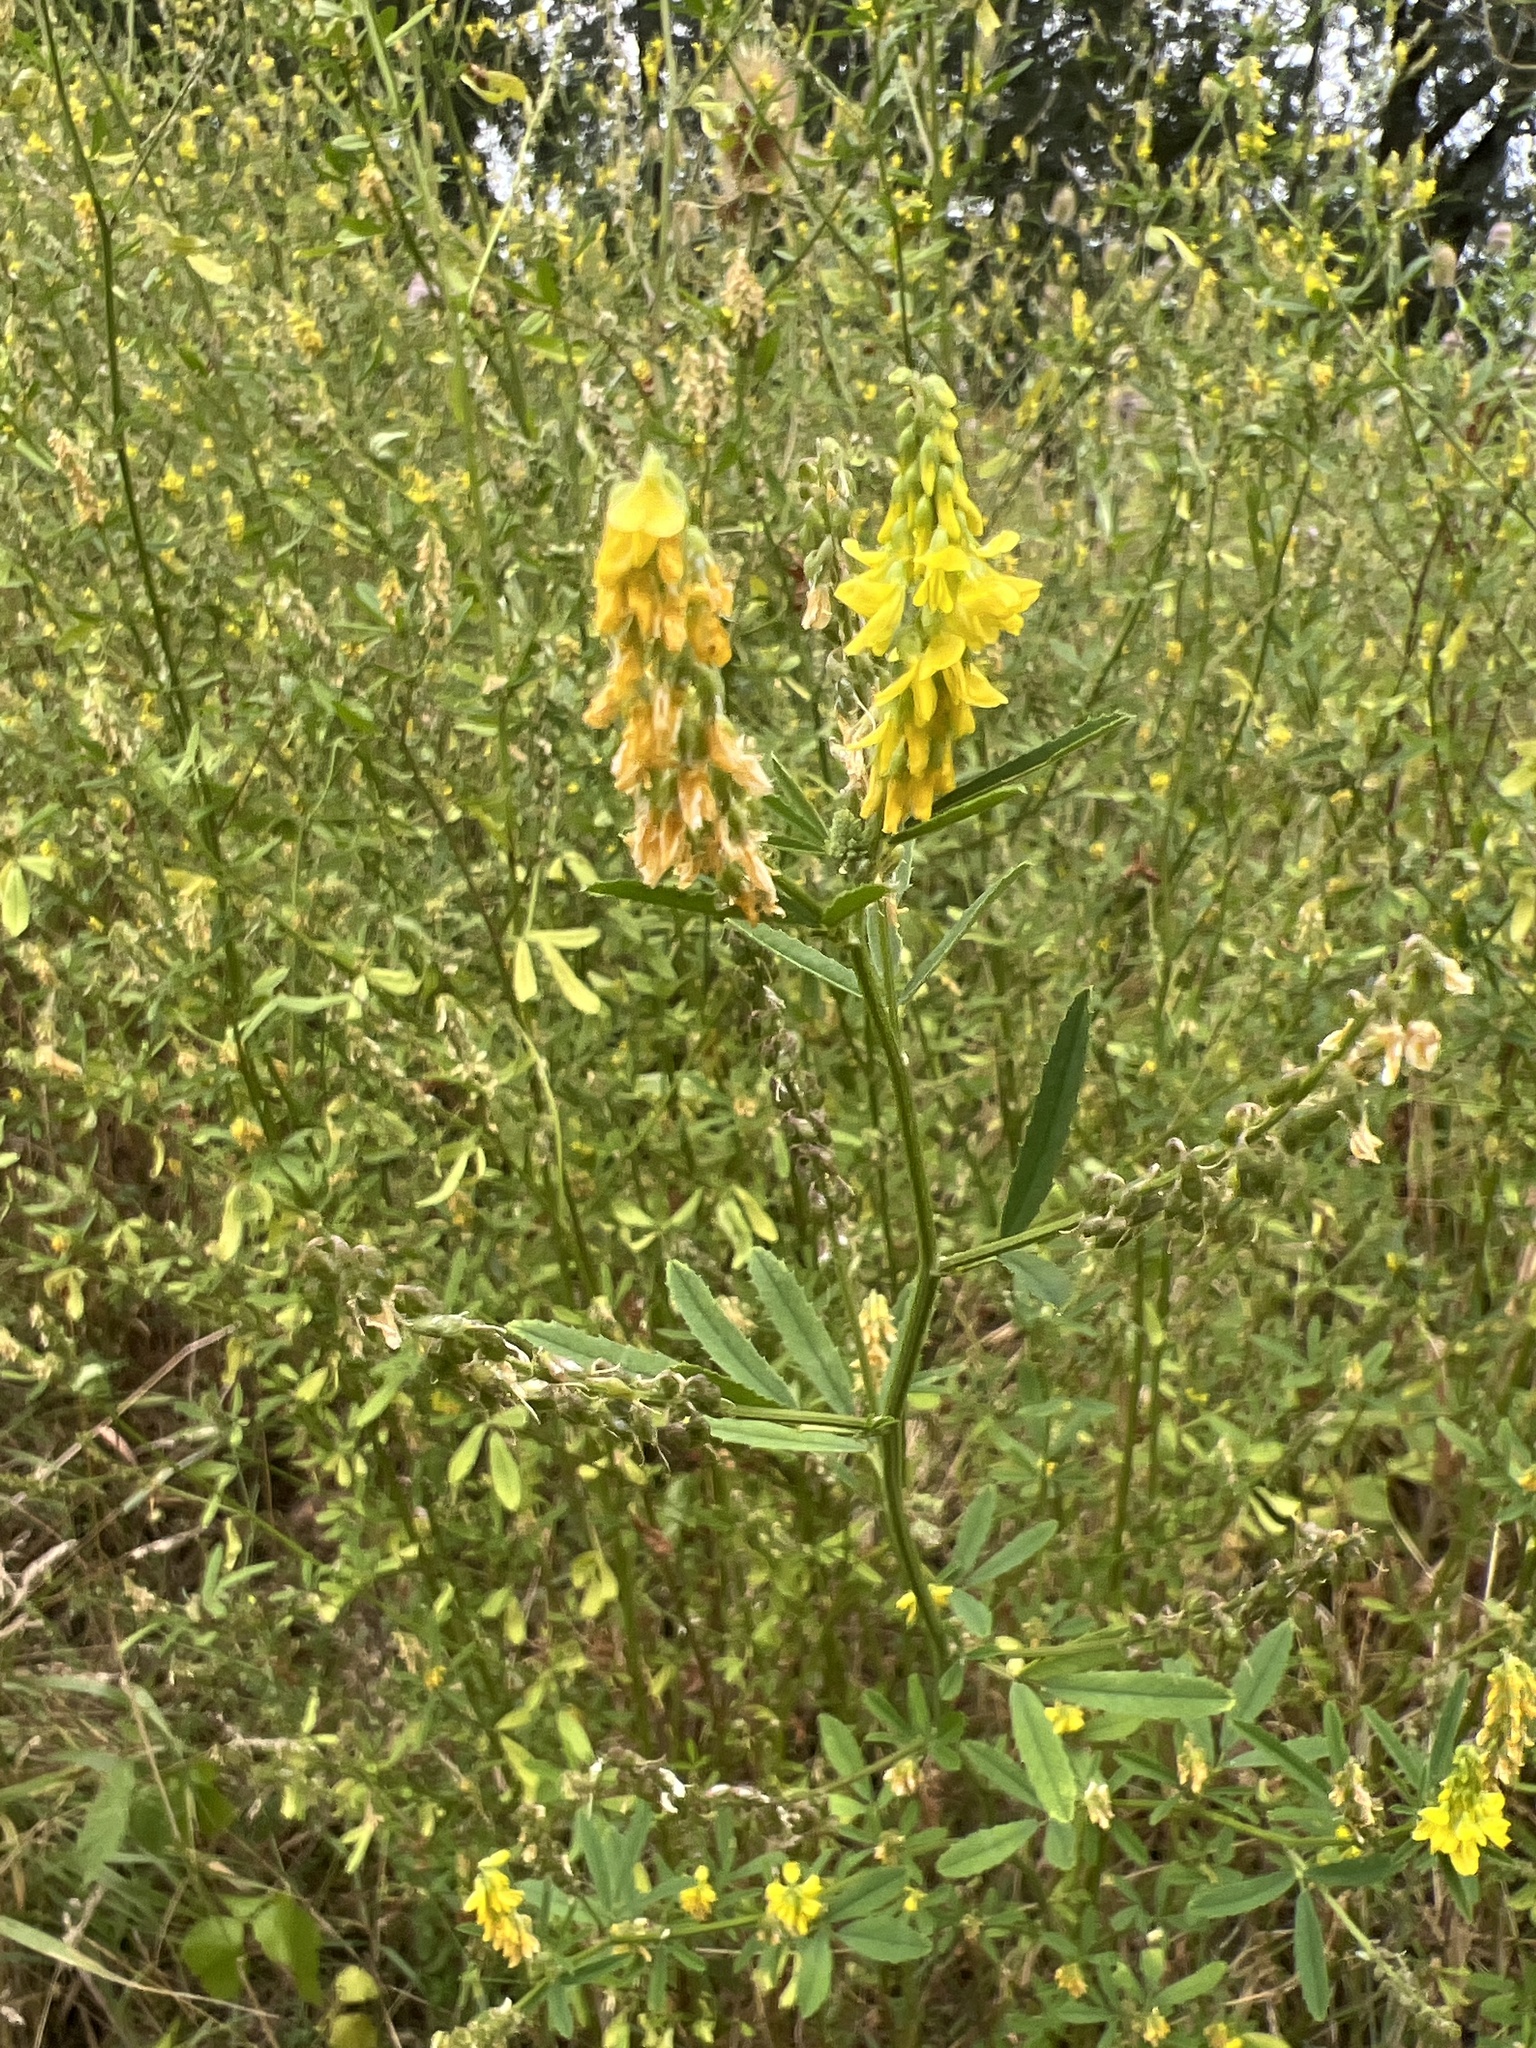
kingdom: Plantae
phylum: Tracheophyta
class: Magnoliopsida
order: Fabales
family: Fabaceae
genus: Melilotus
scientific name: Melilotus officinalis
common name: Sweetclover
